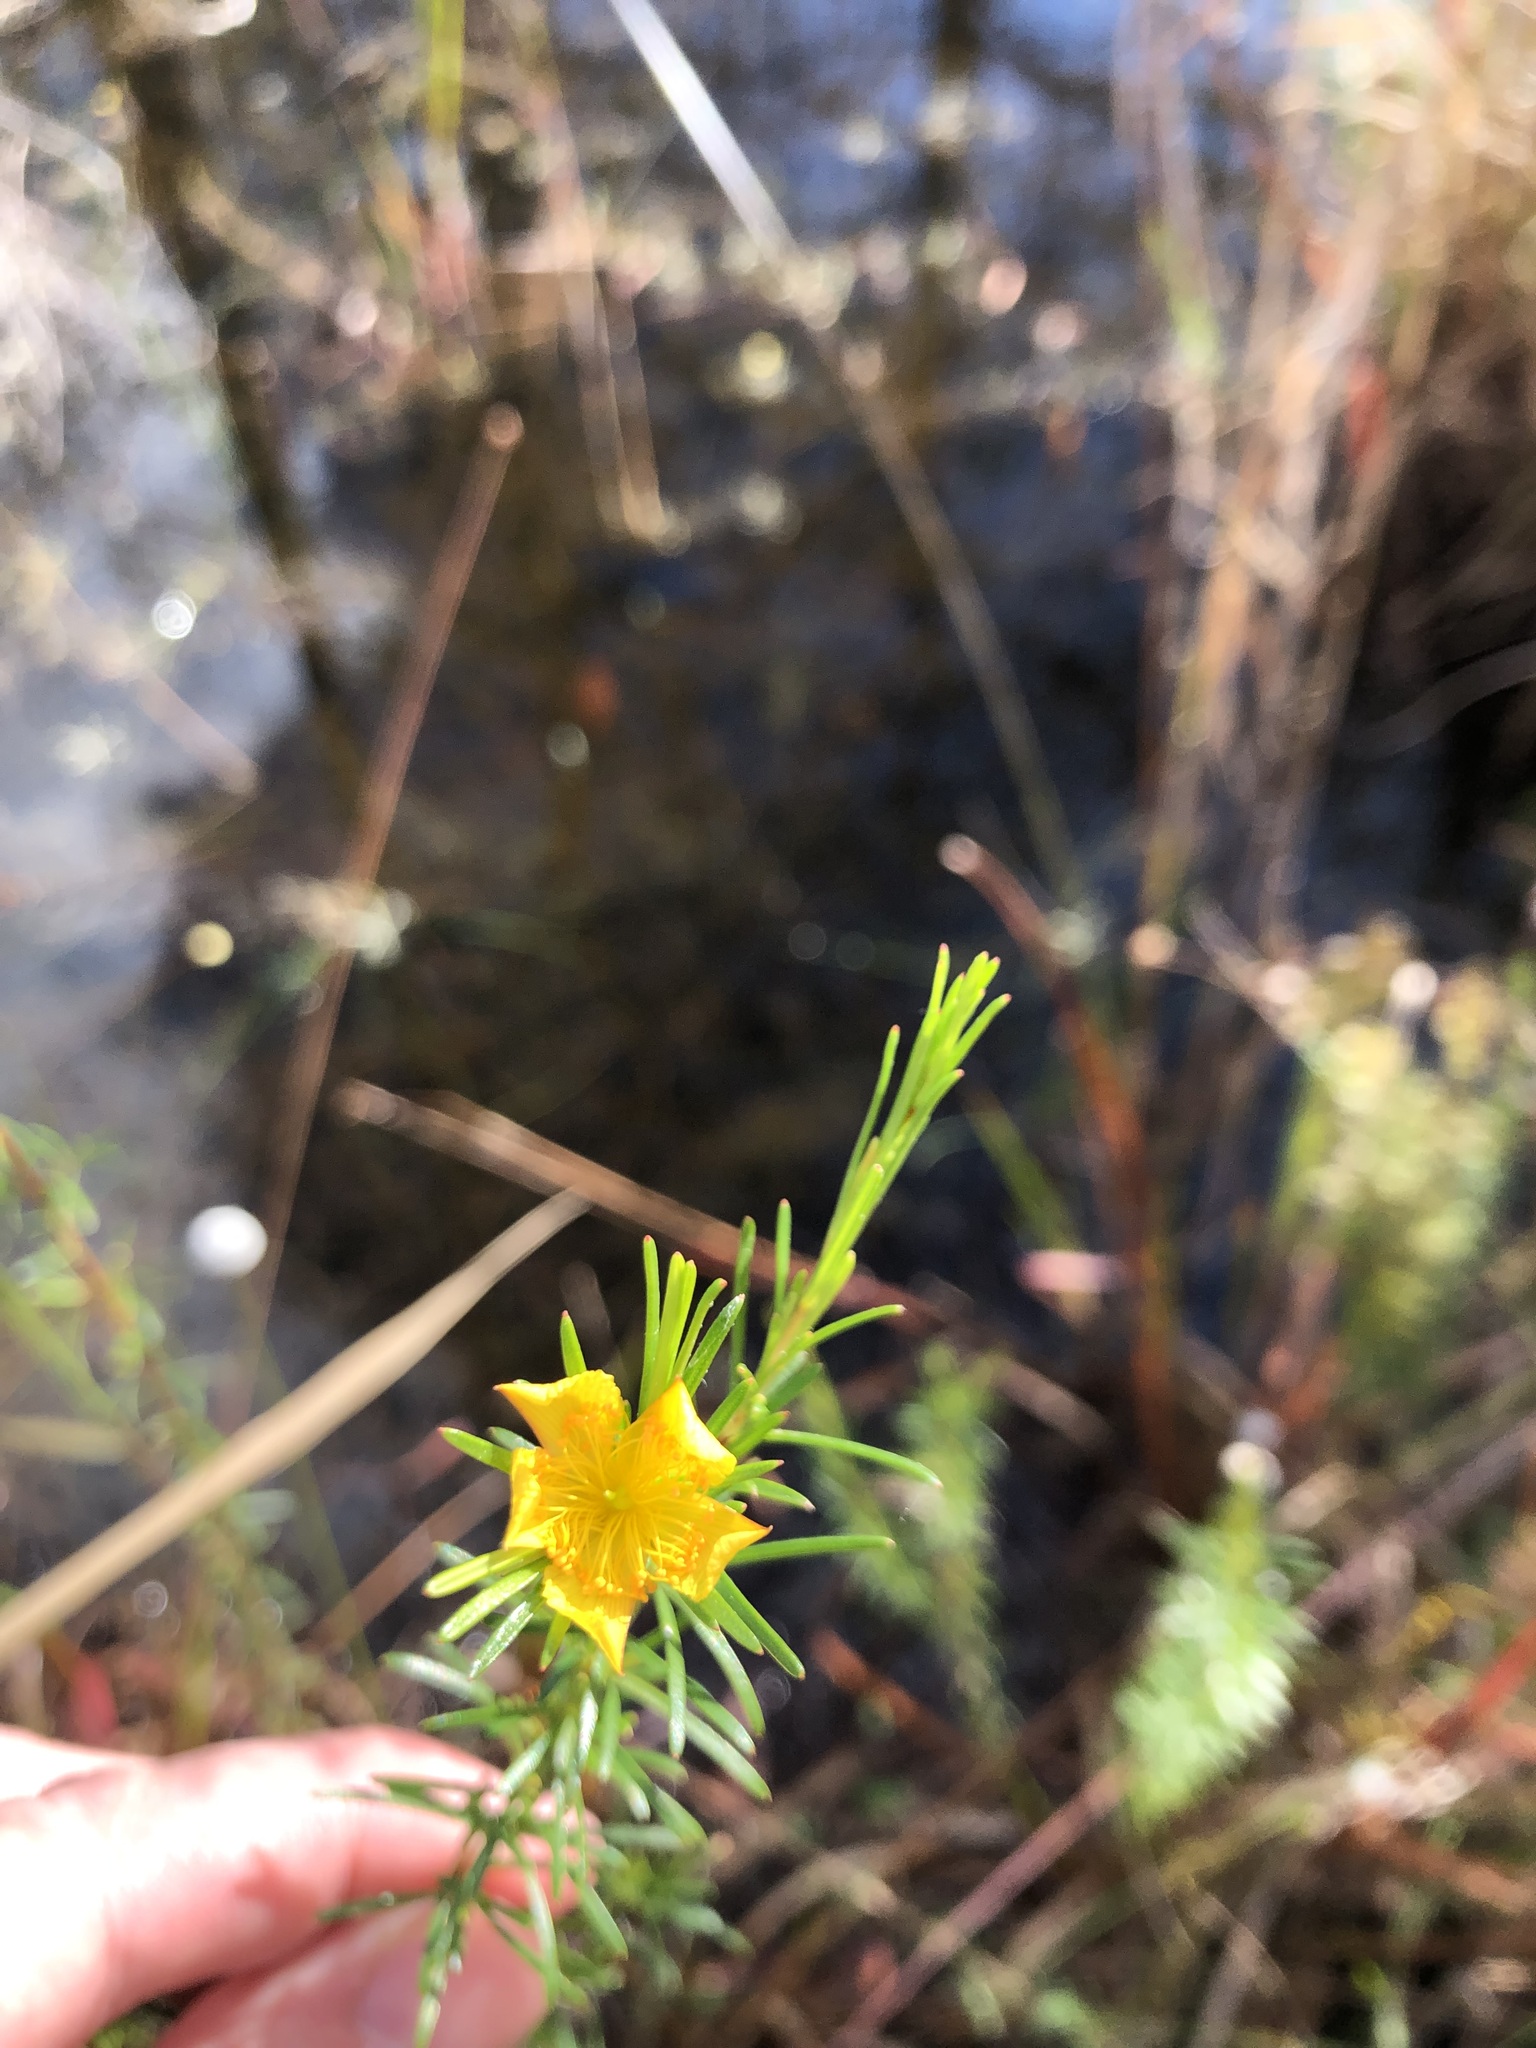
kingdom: Plantae
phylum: Tracheophyta
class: Magnoliopsida
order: Malpighiales
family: Hypericaceae
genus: Hypericum
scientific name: Hypericum fasciculatum
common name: Peelbark st. john's wort
